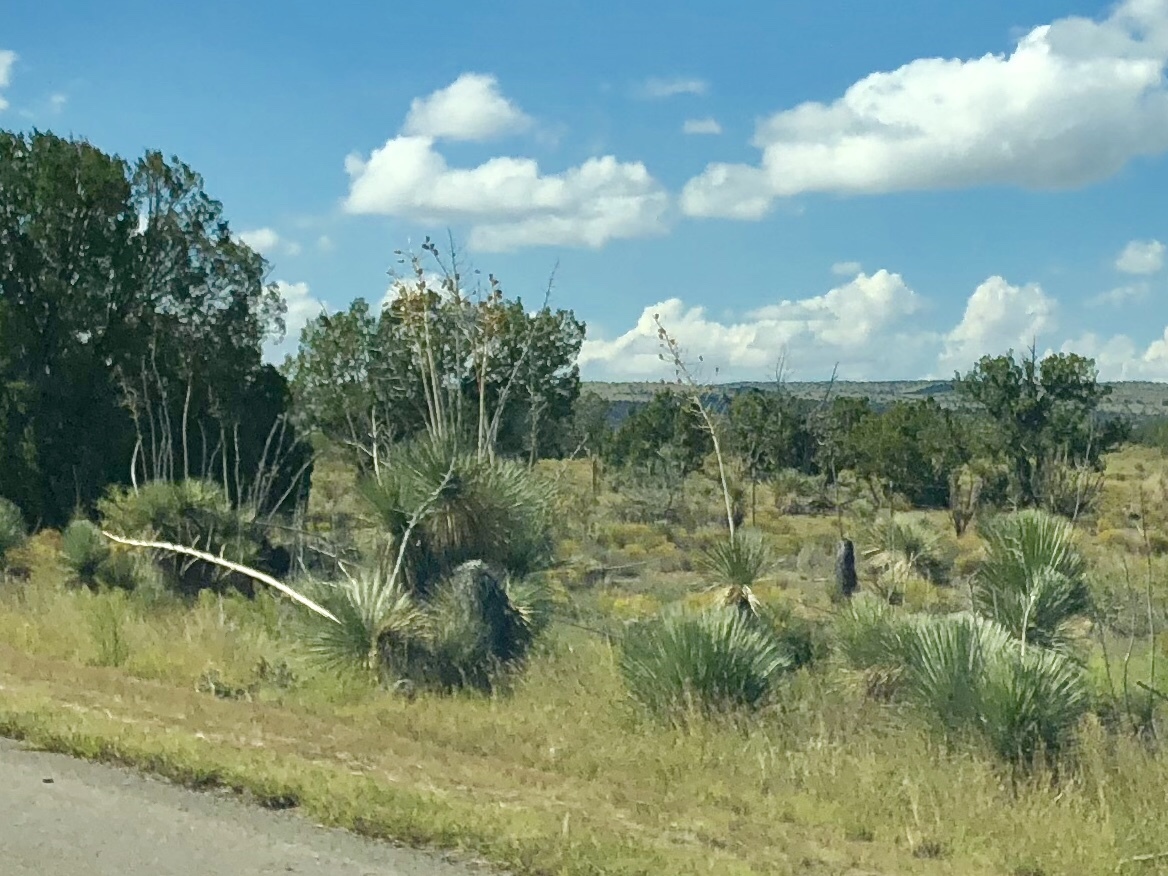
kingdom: Plantae
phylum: Tracheophyta
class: Liliopsida
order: Asparagales
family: Asparagaceae
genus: Yucca
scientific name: Yucca elata
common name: Palmella
